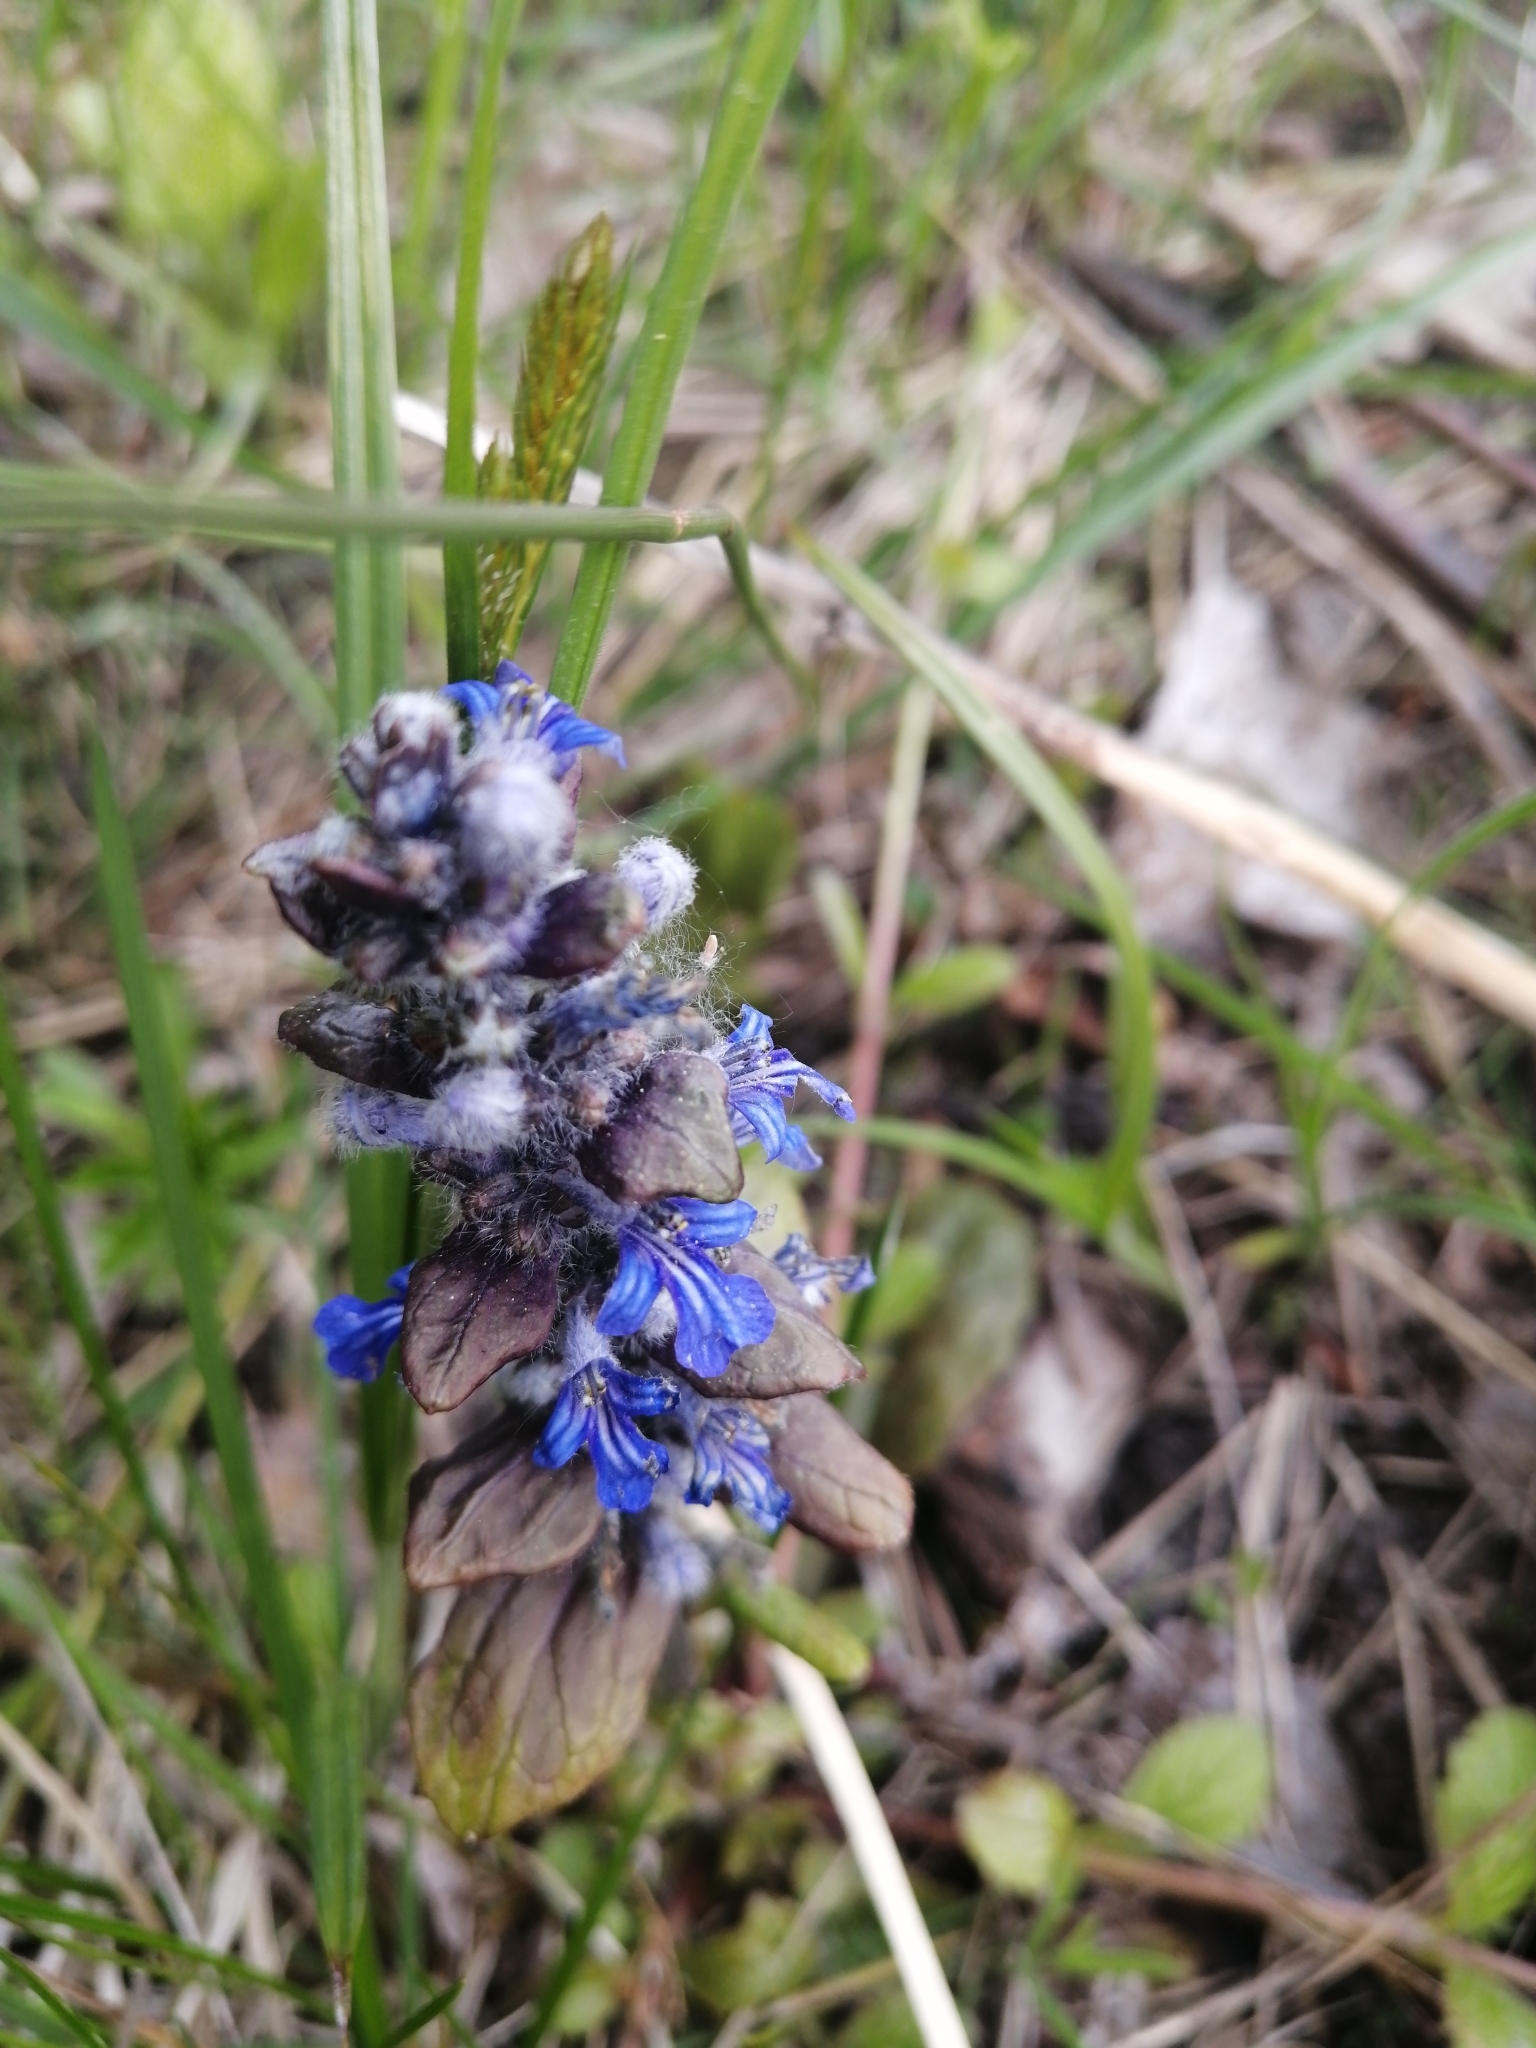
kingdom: Plantae
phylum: Tracheophyta
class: Magnoliopsida
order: Lamiales
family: Lamiaceae
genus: Ajuga
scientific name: Ajuga reptans
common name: Bugle
